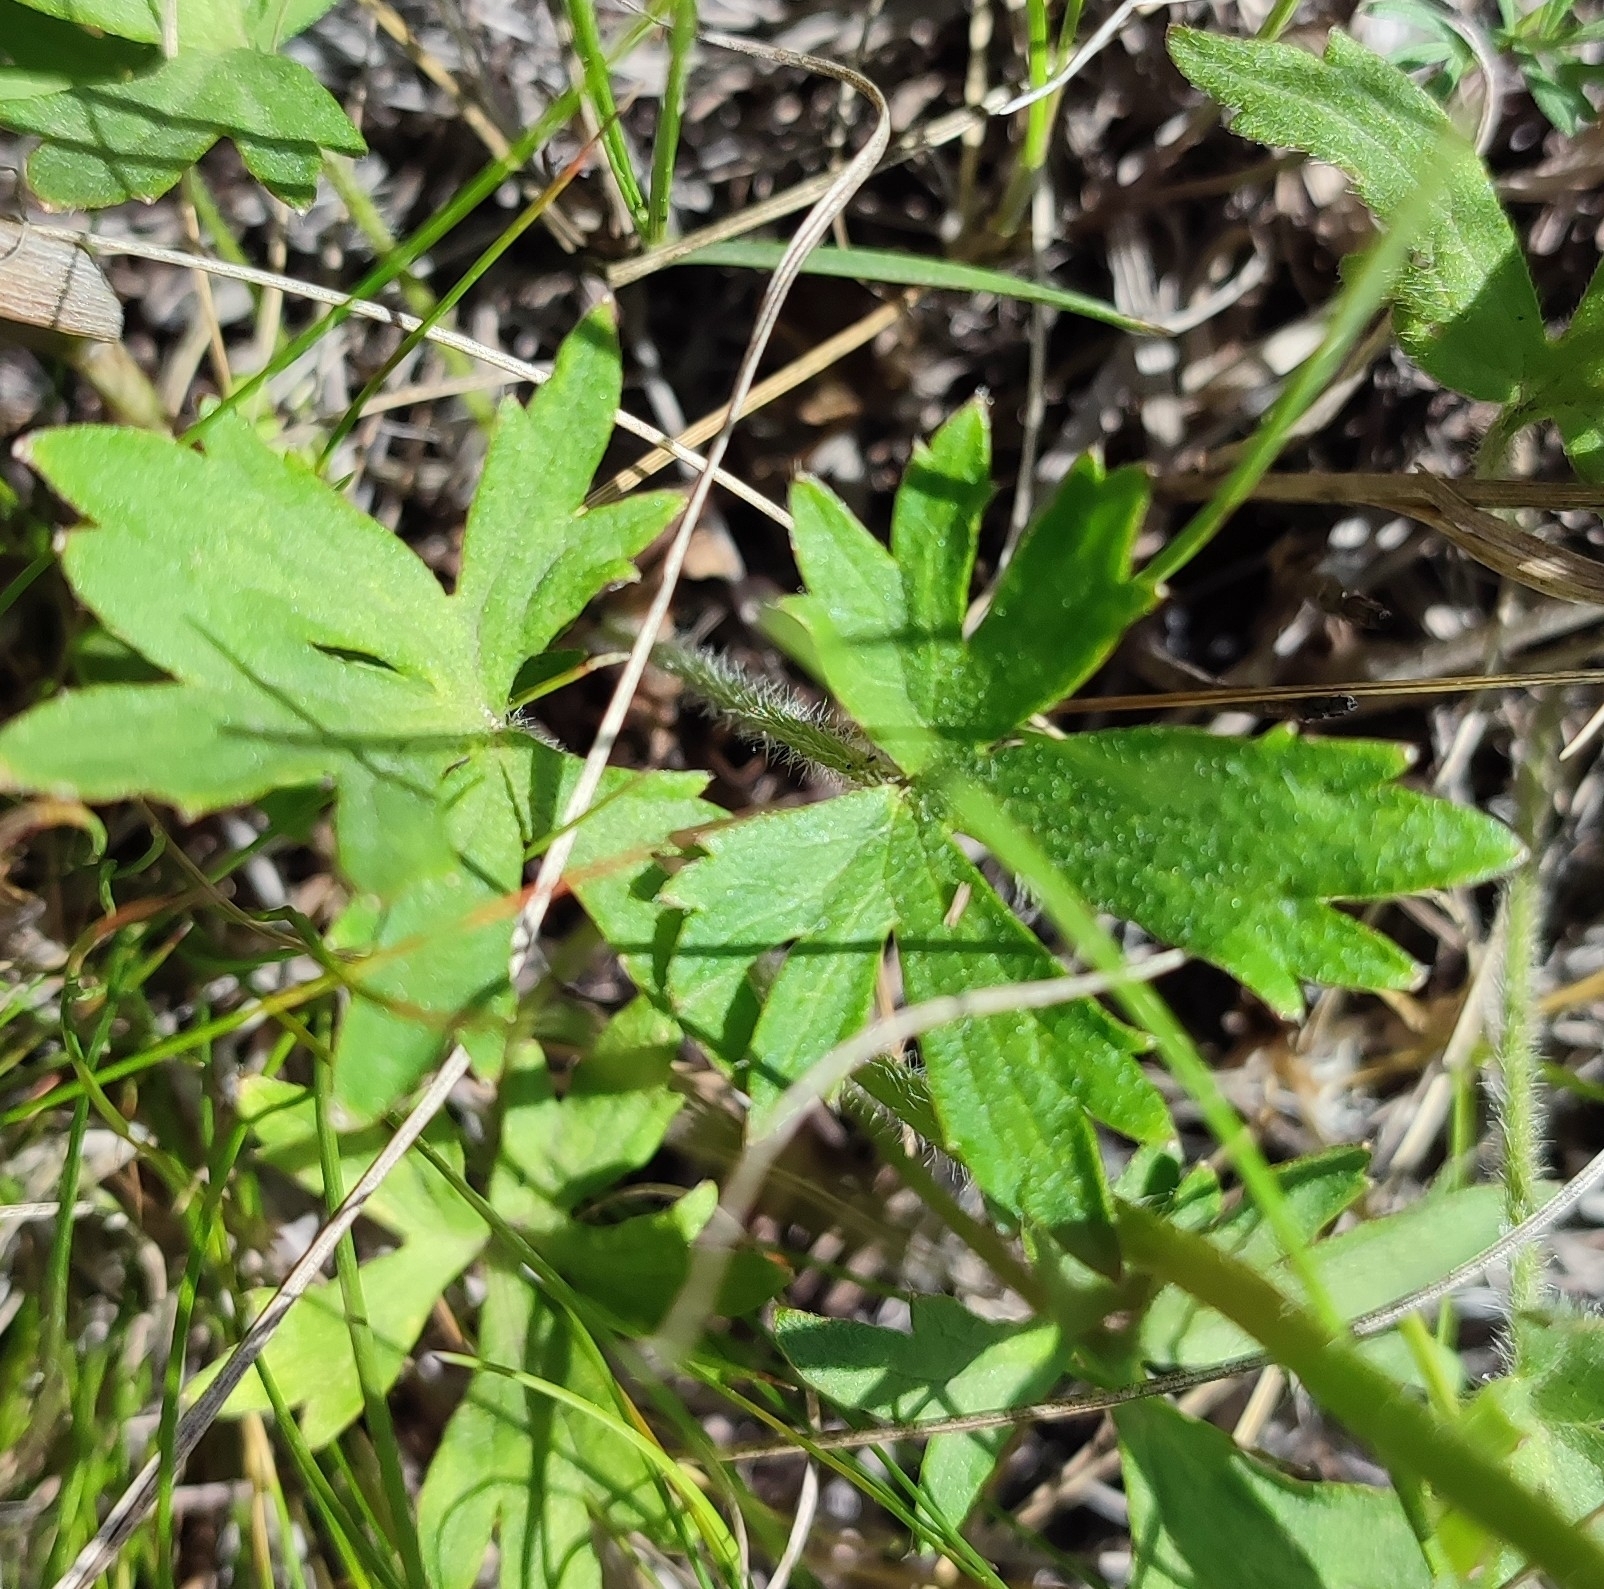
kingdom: Plantae
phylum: Tracheophyta
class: Magnoliopsida
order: Ranunculales
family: Ranunculaceae
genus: Ranunculus
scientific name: Ranunculus polyanthemos
